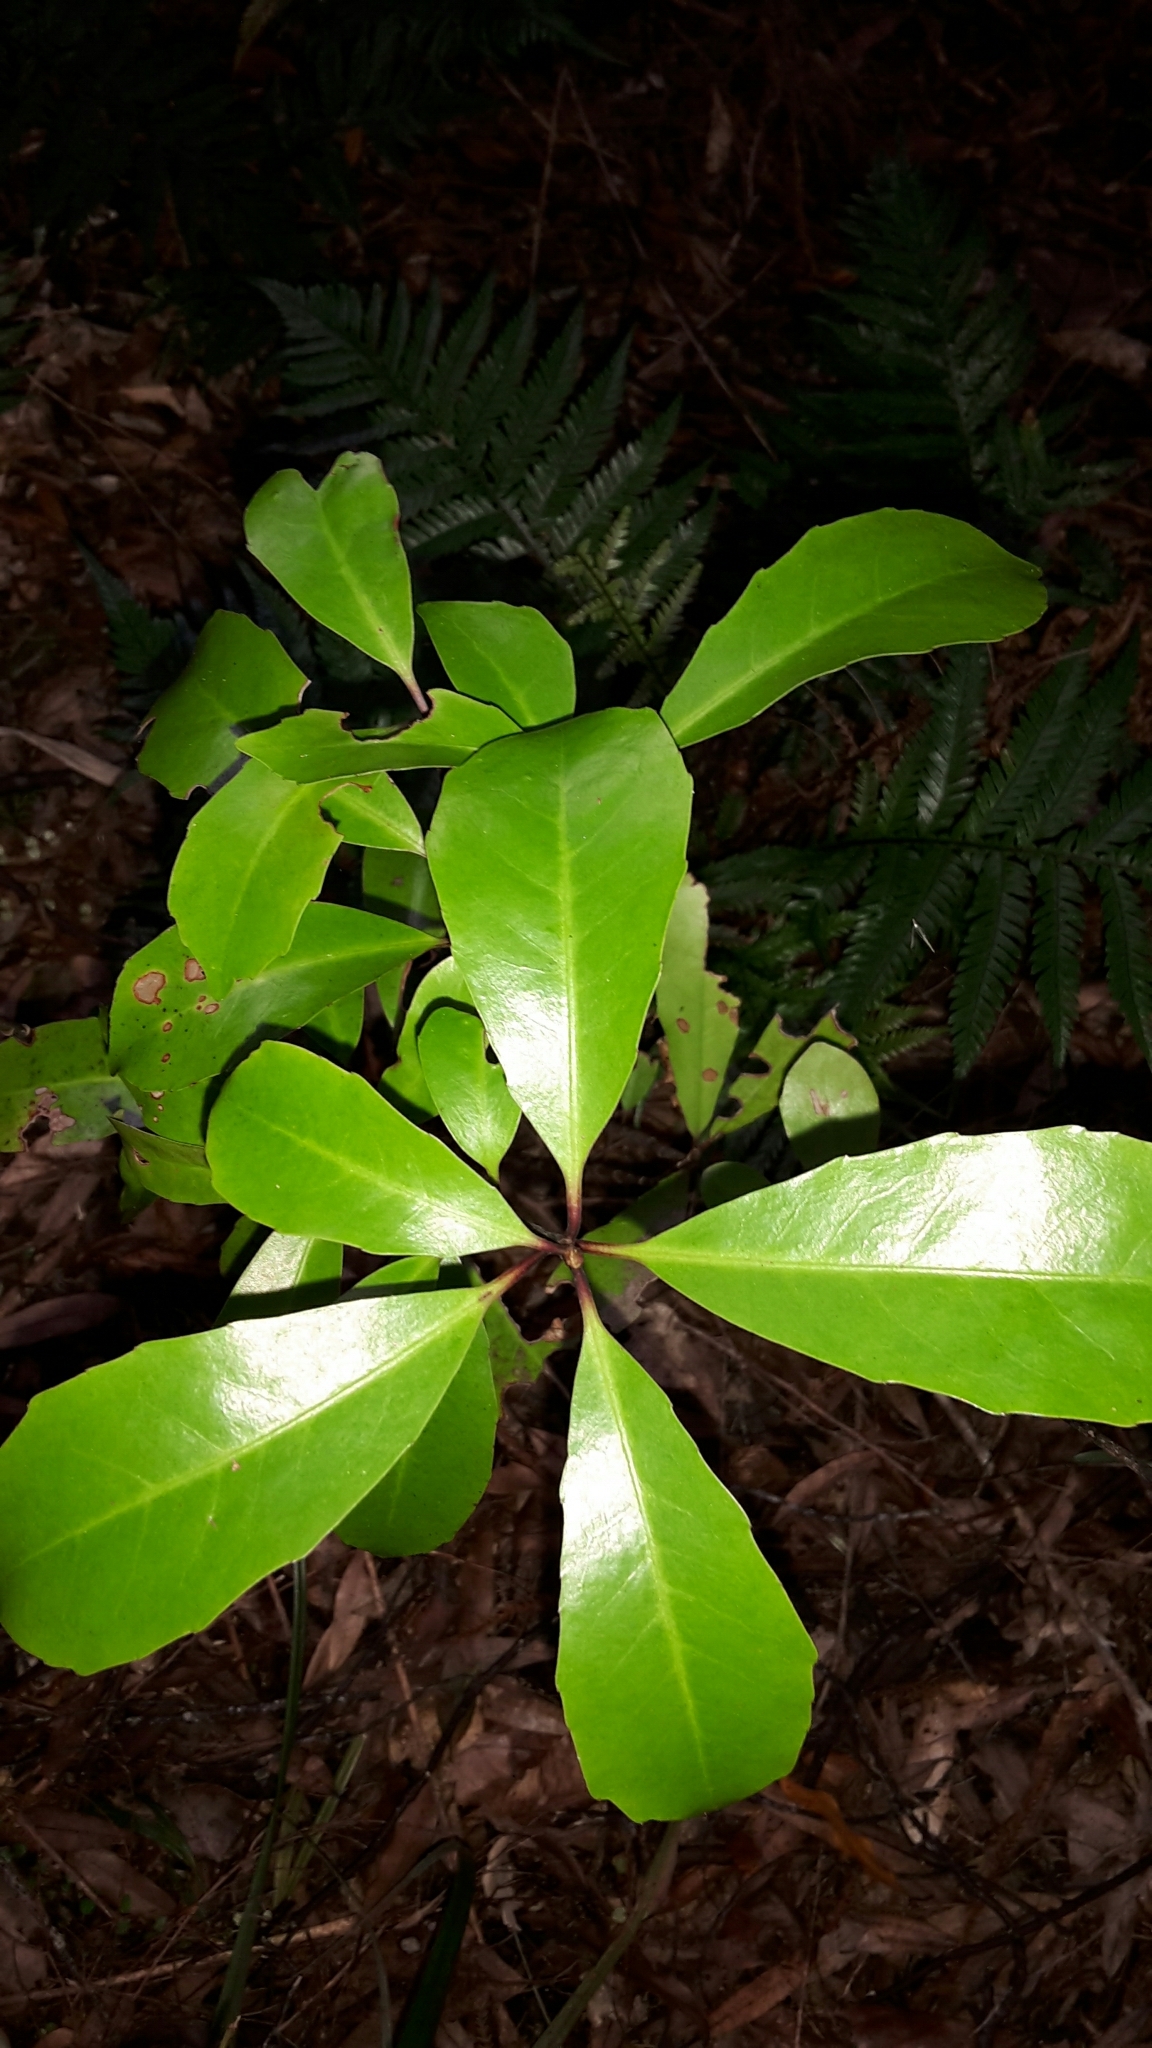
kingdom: Plantae
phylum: Tracheophyta
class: Magnoliopsida
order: Asterales
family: Alseuosmiaceae
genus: Alseuosmia
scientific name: Alseuosmia quercifolia
